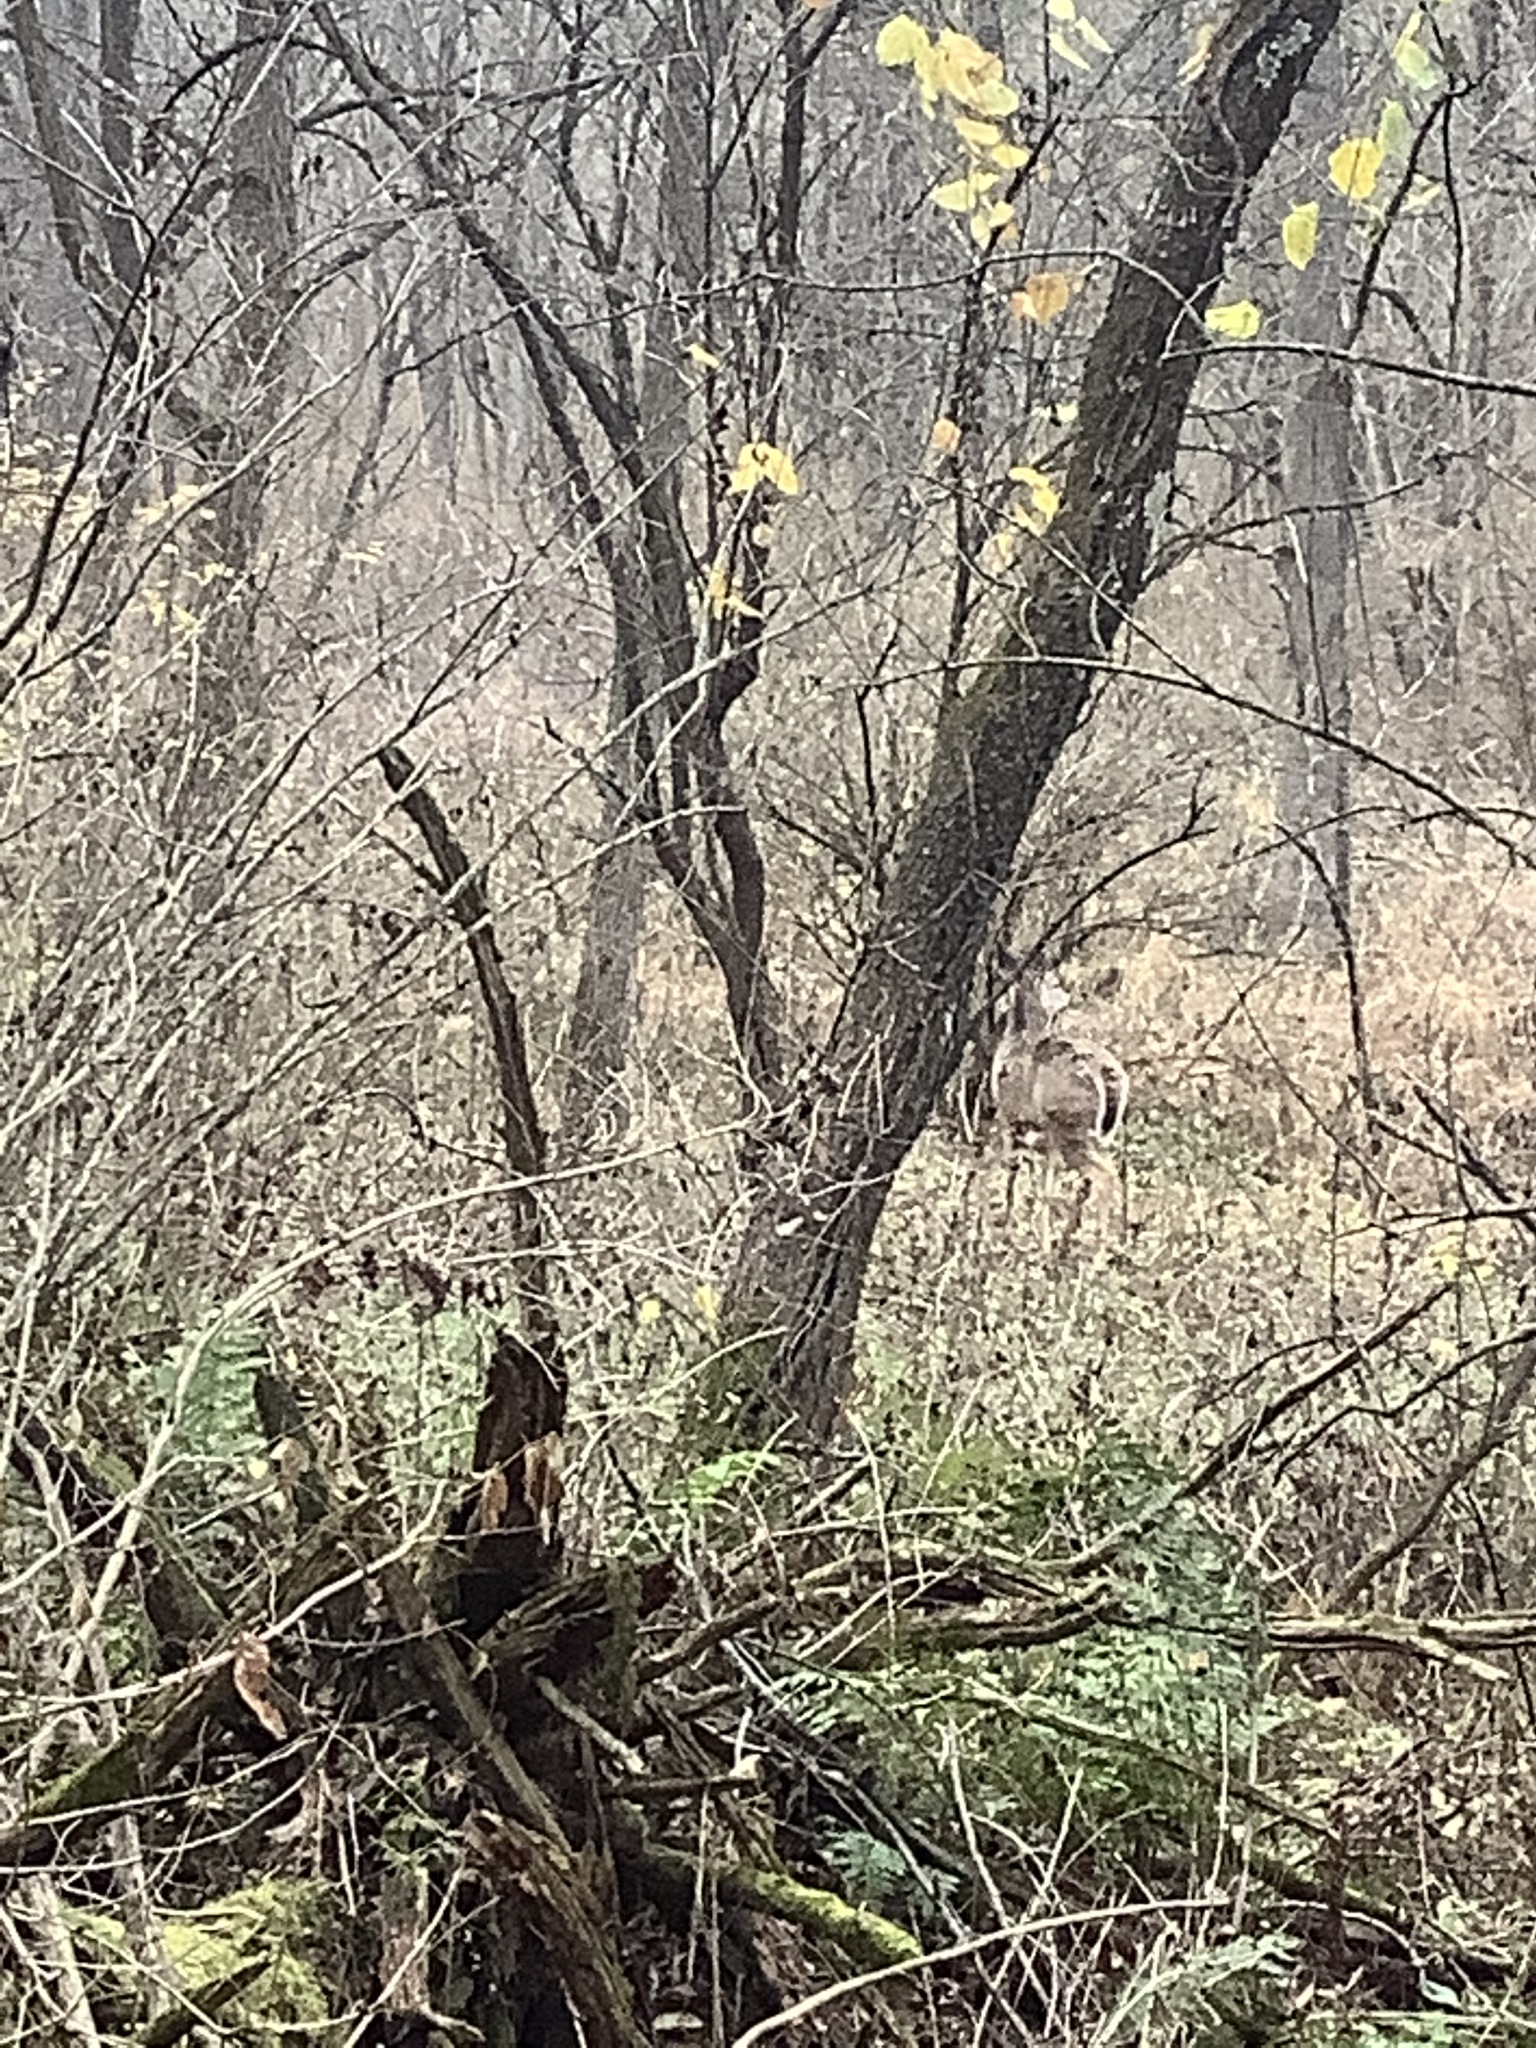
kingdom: Animalia
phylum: Chordata
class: Mammalia
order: Artiodactyla
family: Cervidae
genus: Odocoileus
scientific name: Odocoileus virginianus
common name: White-tailed deer
